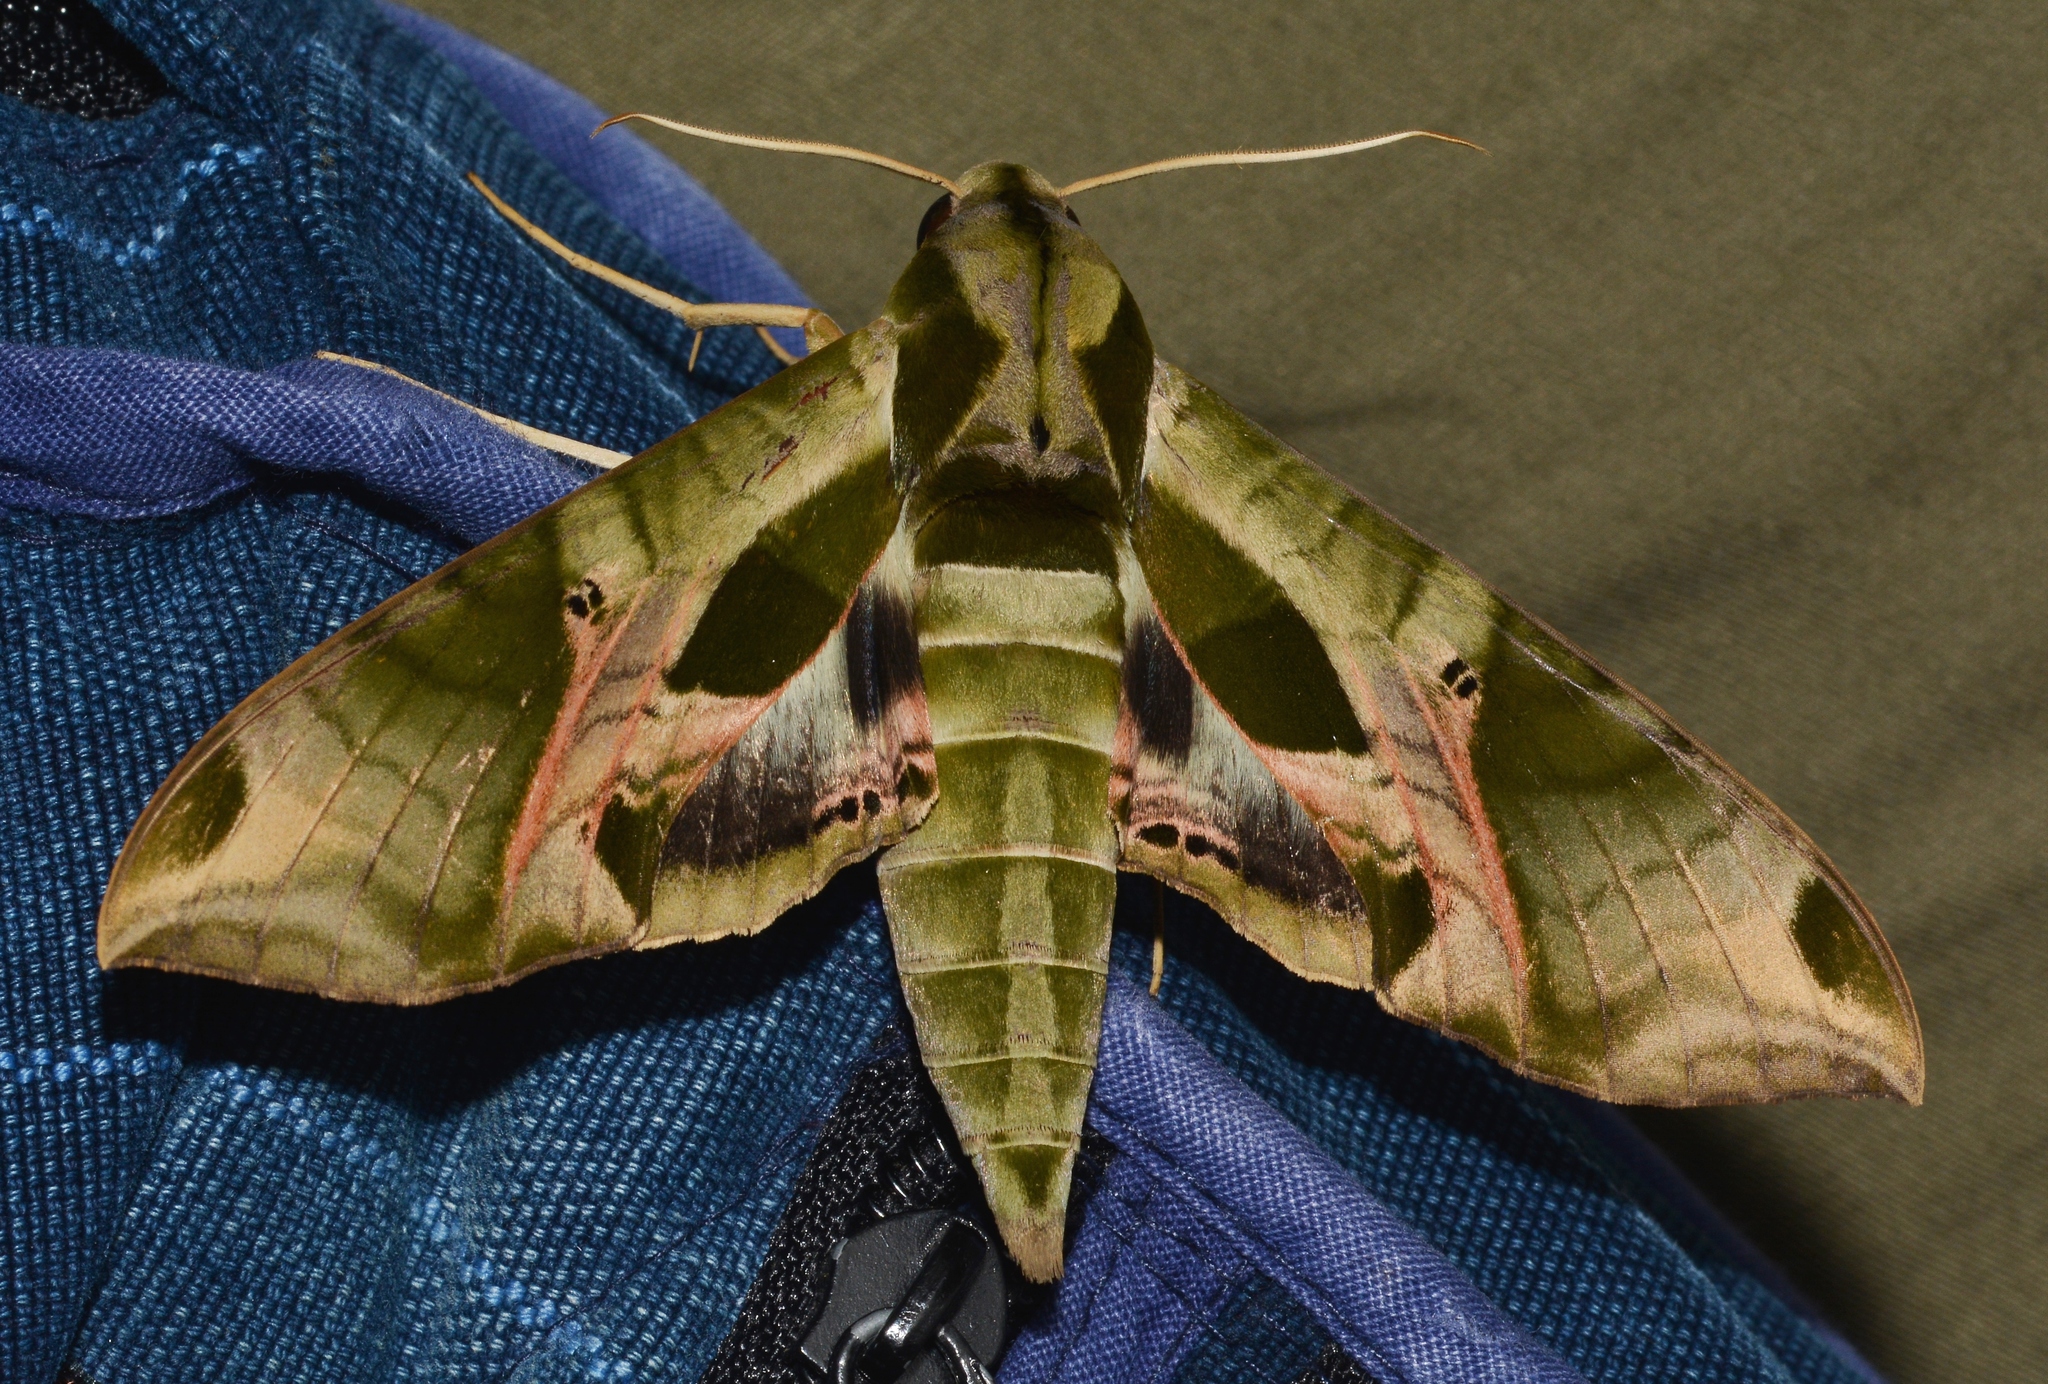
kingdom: Animalia
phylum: Arthropoda
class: Insecta
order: Lepidoptera
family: Sphingidae
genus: Eumorpha
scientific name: Eumorpha pandorus
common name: Pandora sphinx
